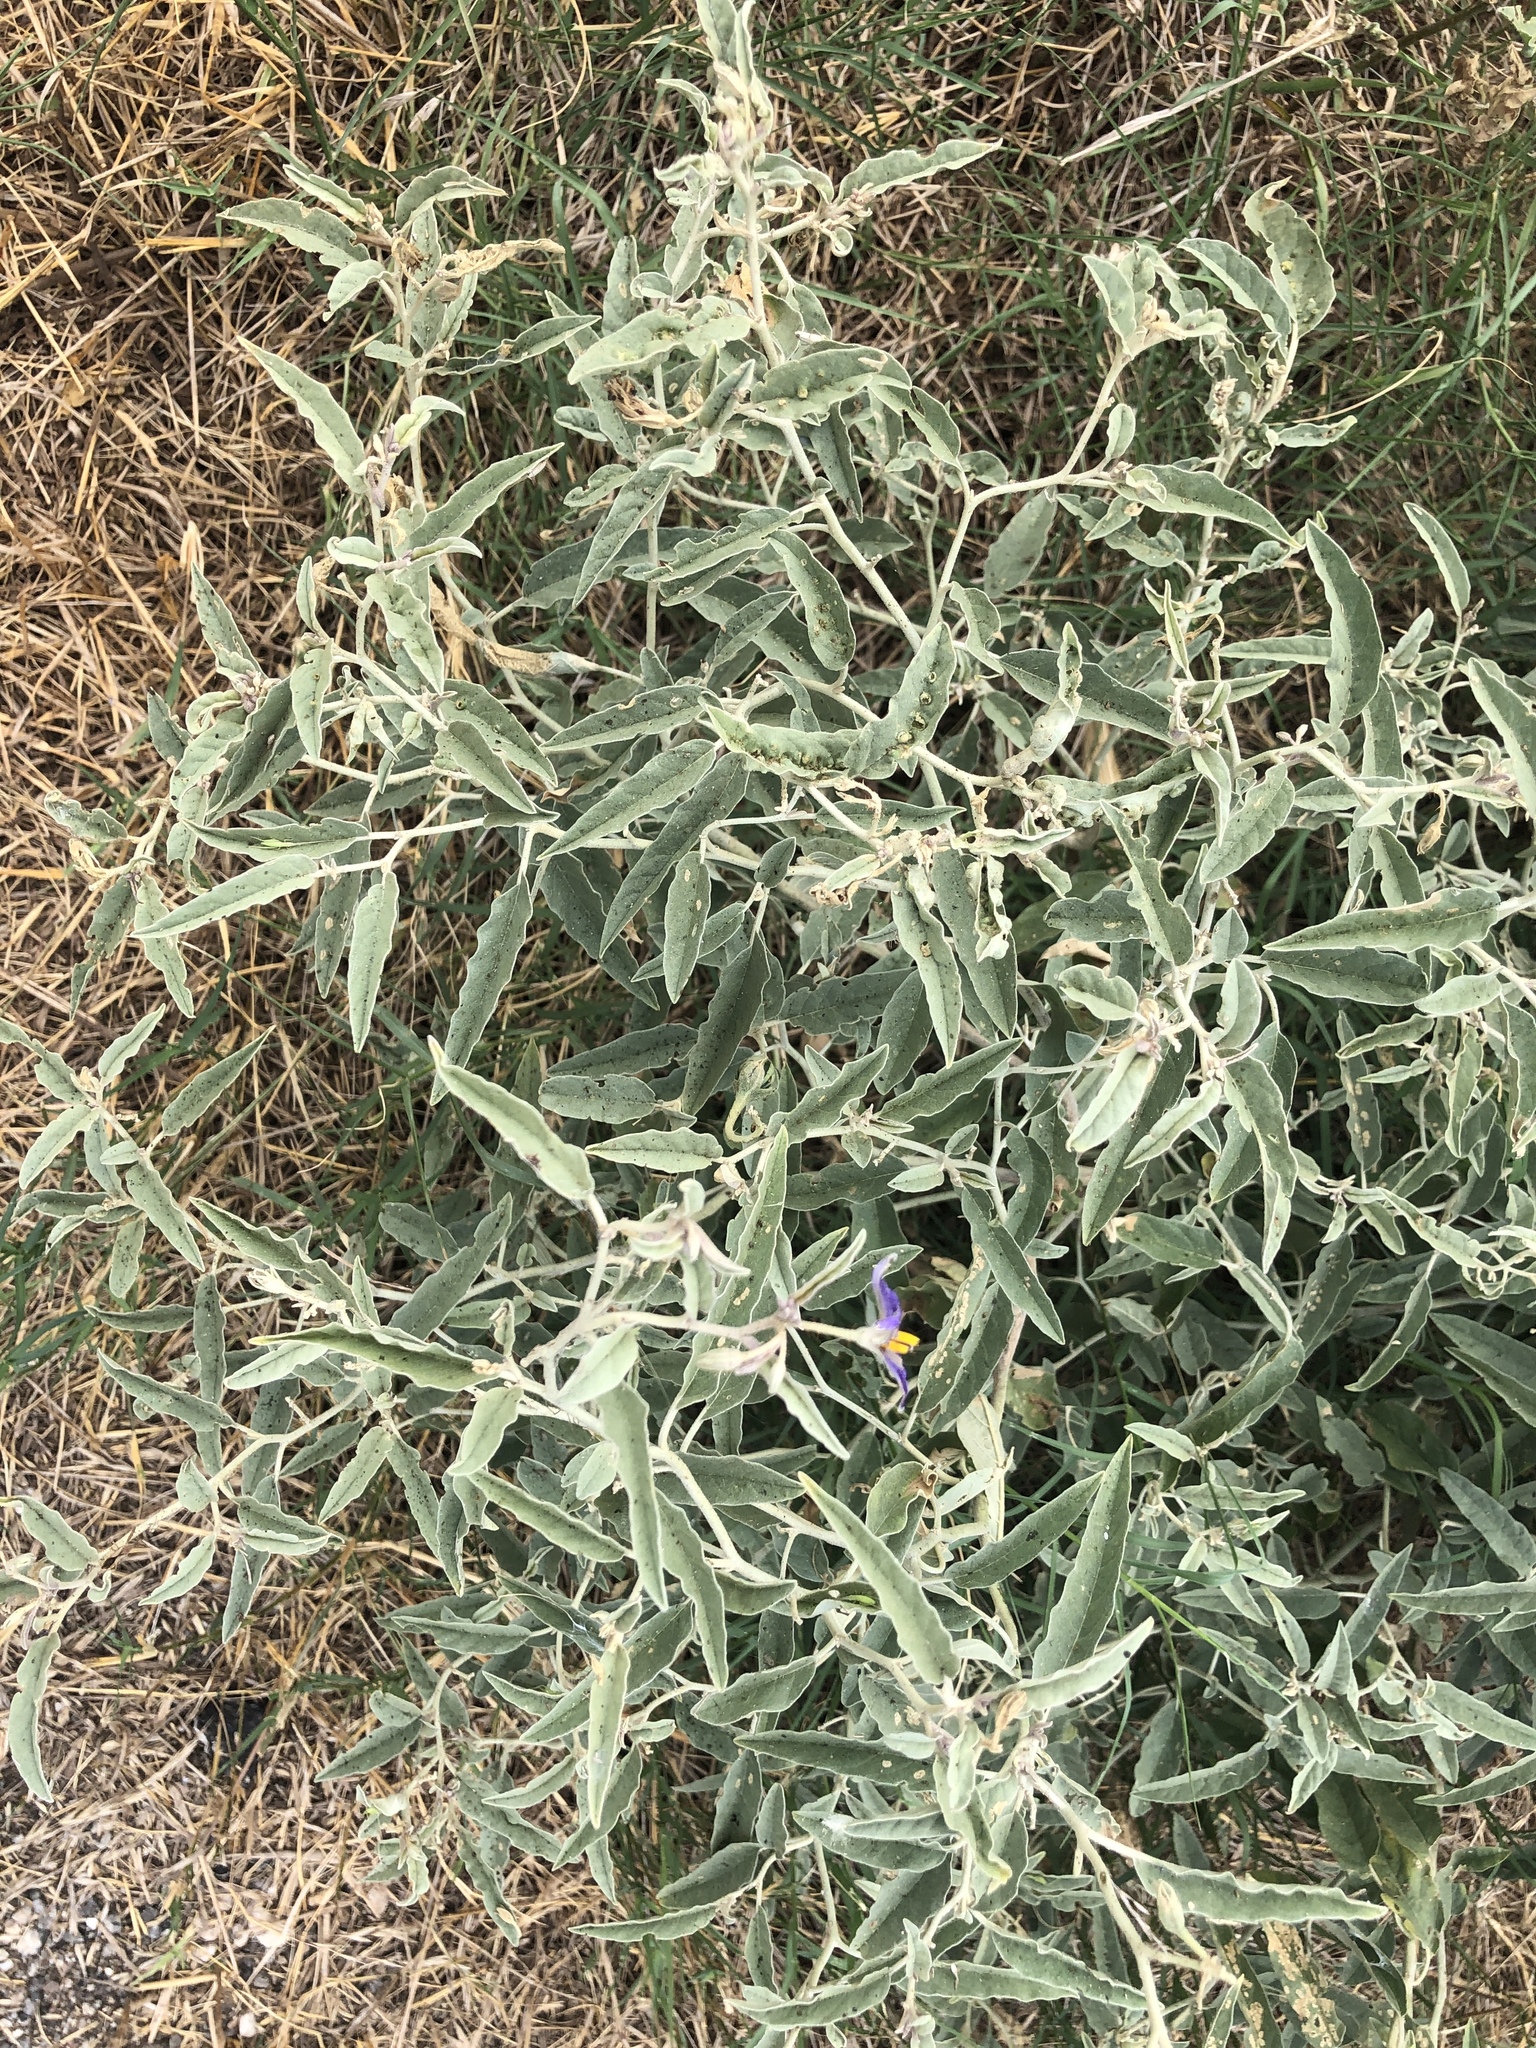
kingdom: Plantae
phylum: Tracheophyta
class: Magnoliopsida
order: Solanales
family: Solanaceae
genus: Solanum
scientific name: Solanum elaeagnifolium
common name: Silverleaf nightshade
